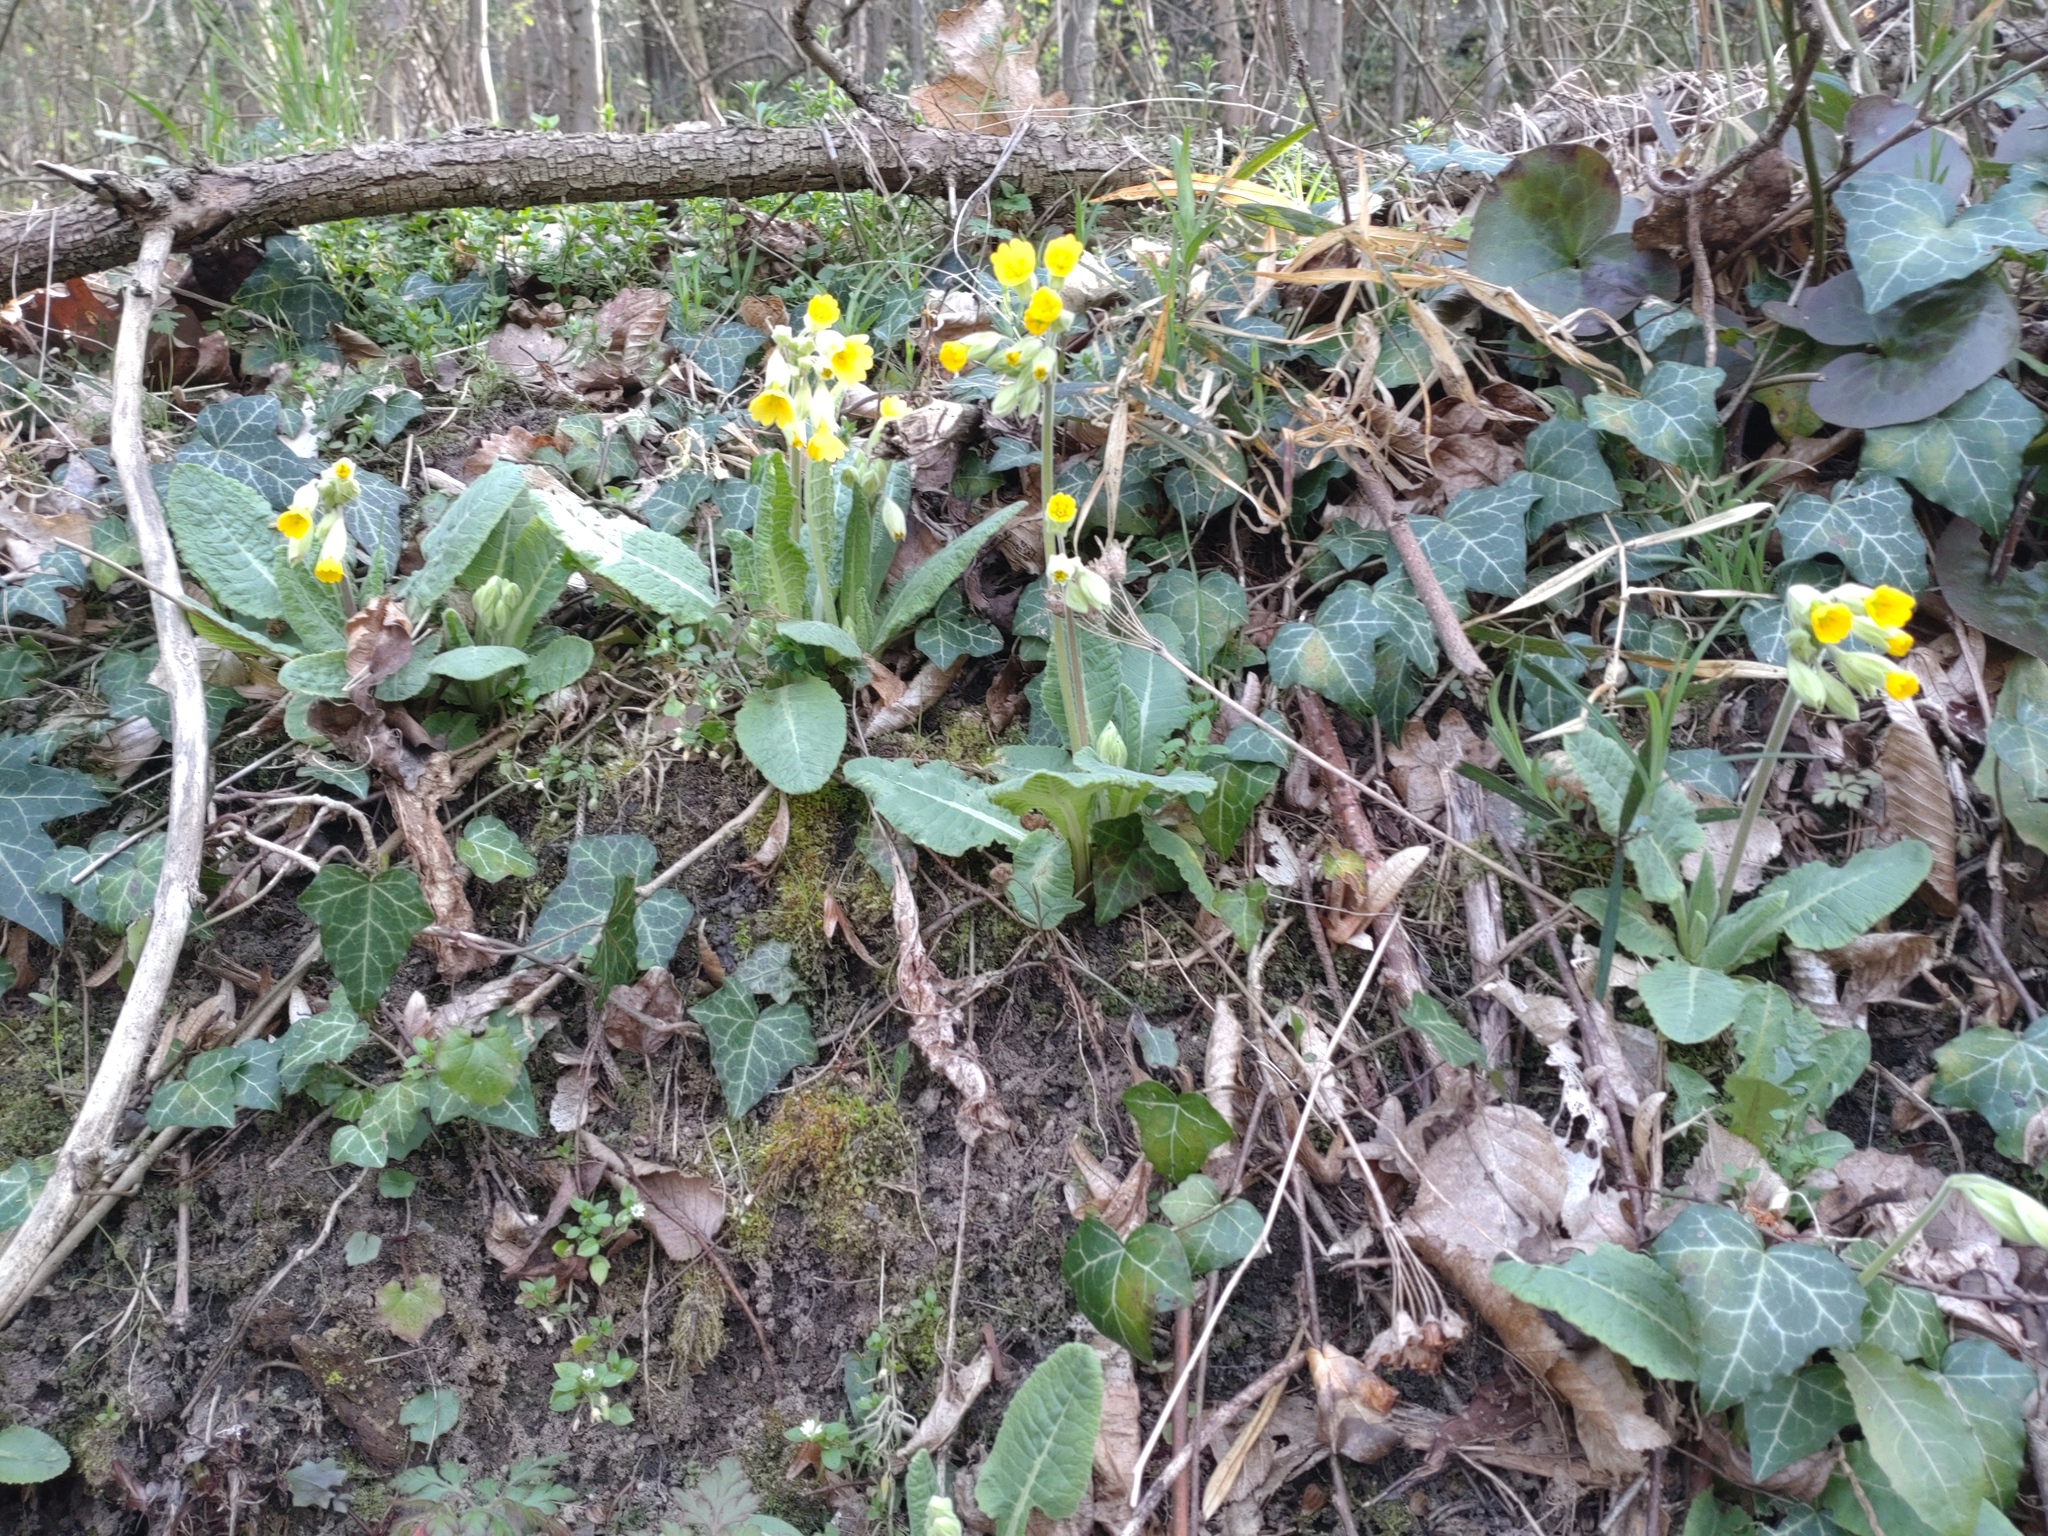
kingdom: Plantae
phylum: Tracheophyta
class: Magnoliopsida
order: Ericales
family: Primulaceae
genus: Primula
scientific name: Primula veris
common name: Cowslip
